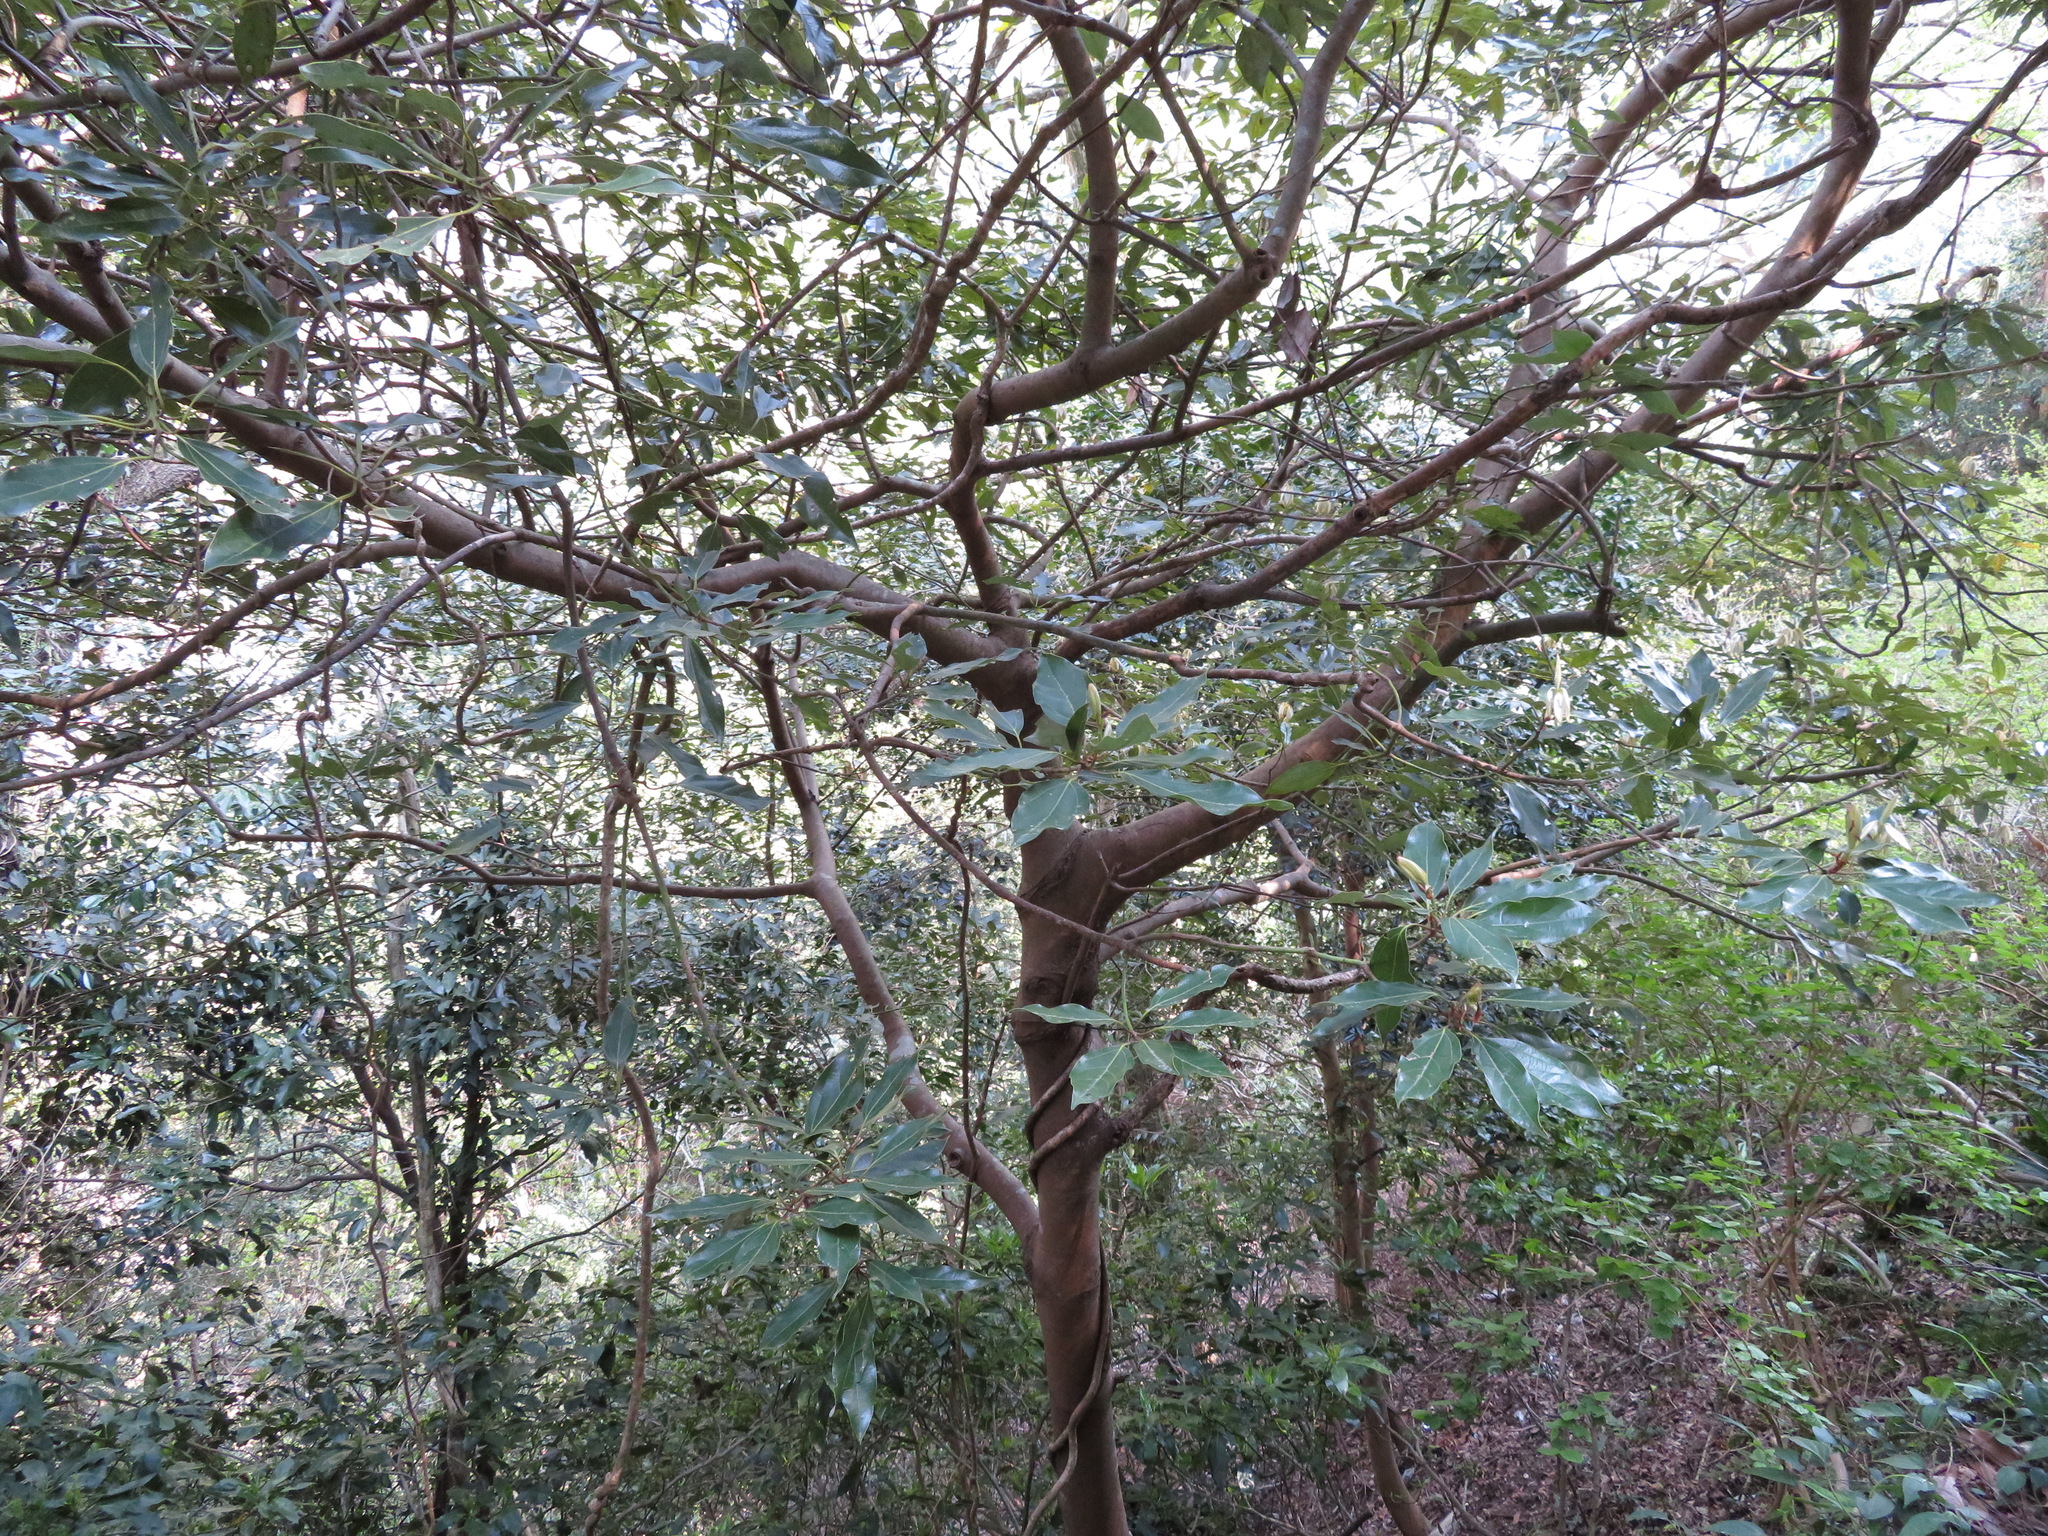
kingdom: Plantae
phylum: Tracheophyta
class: Magnoliopsida
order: Laurales
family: Lauraceae
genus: Neolitsea
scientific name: Neolitsea sericea
